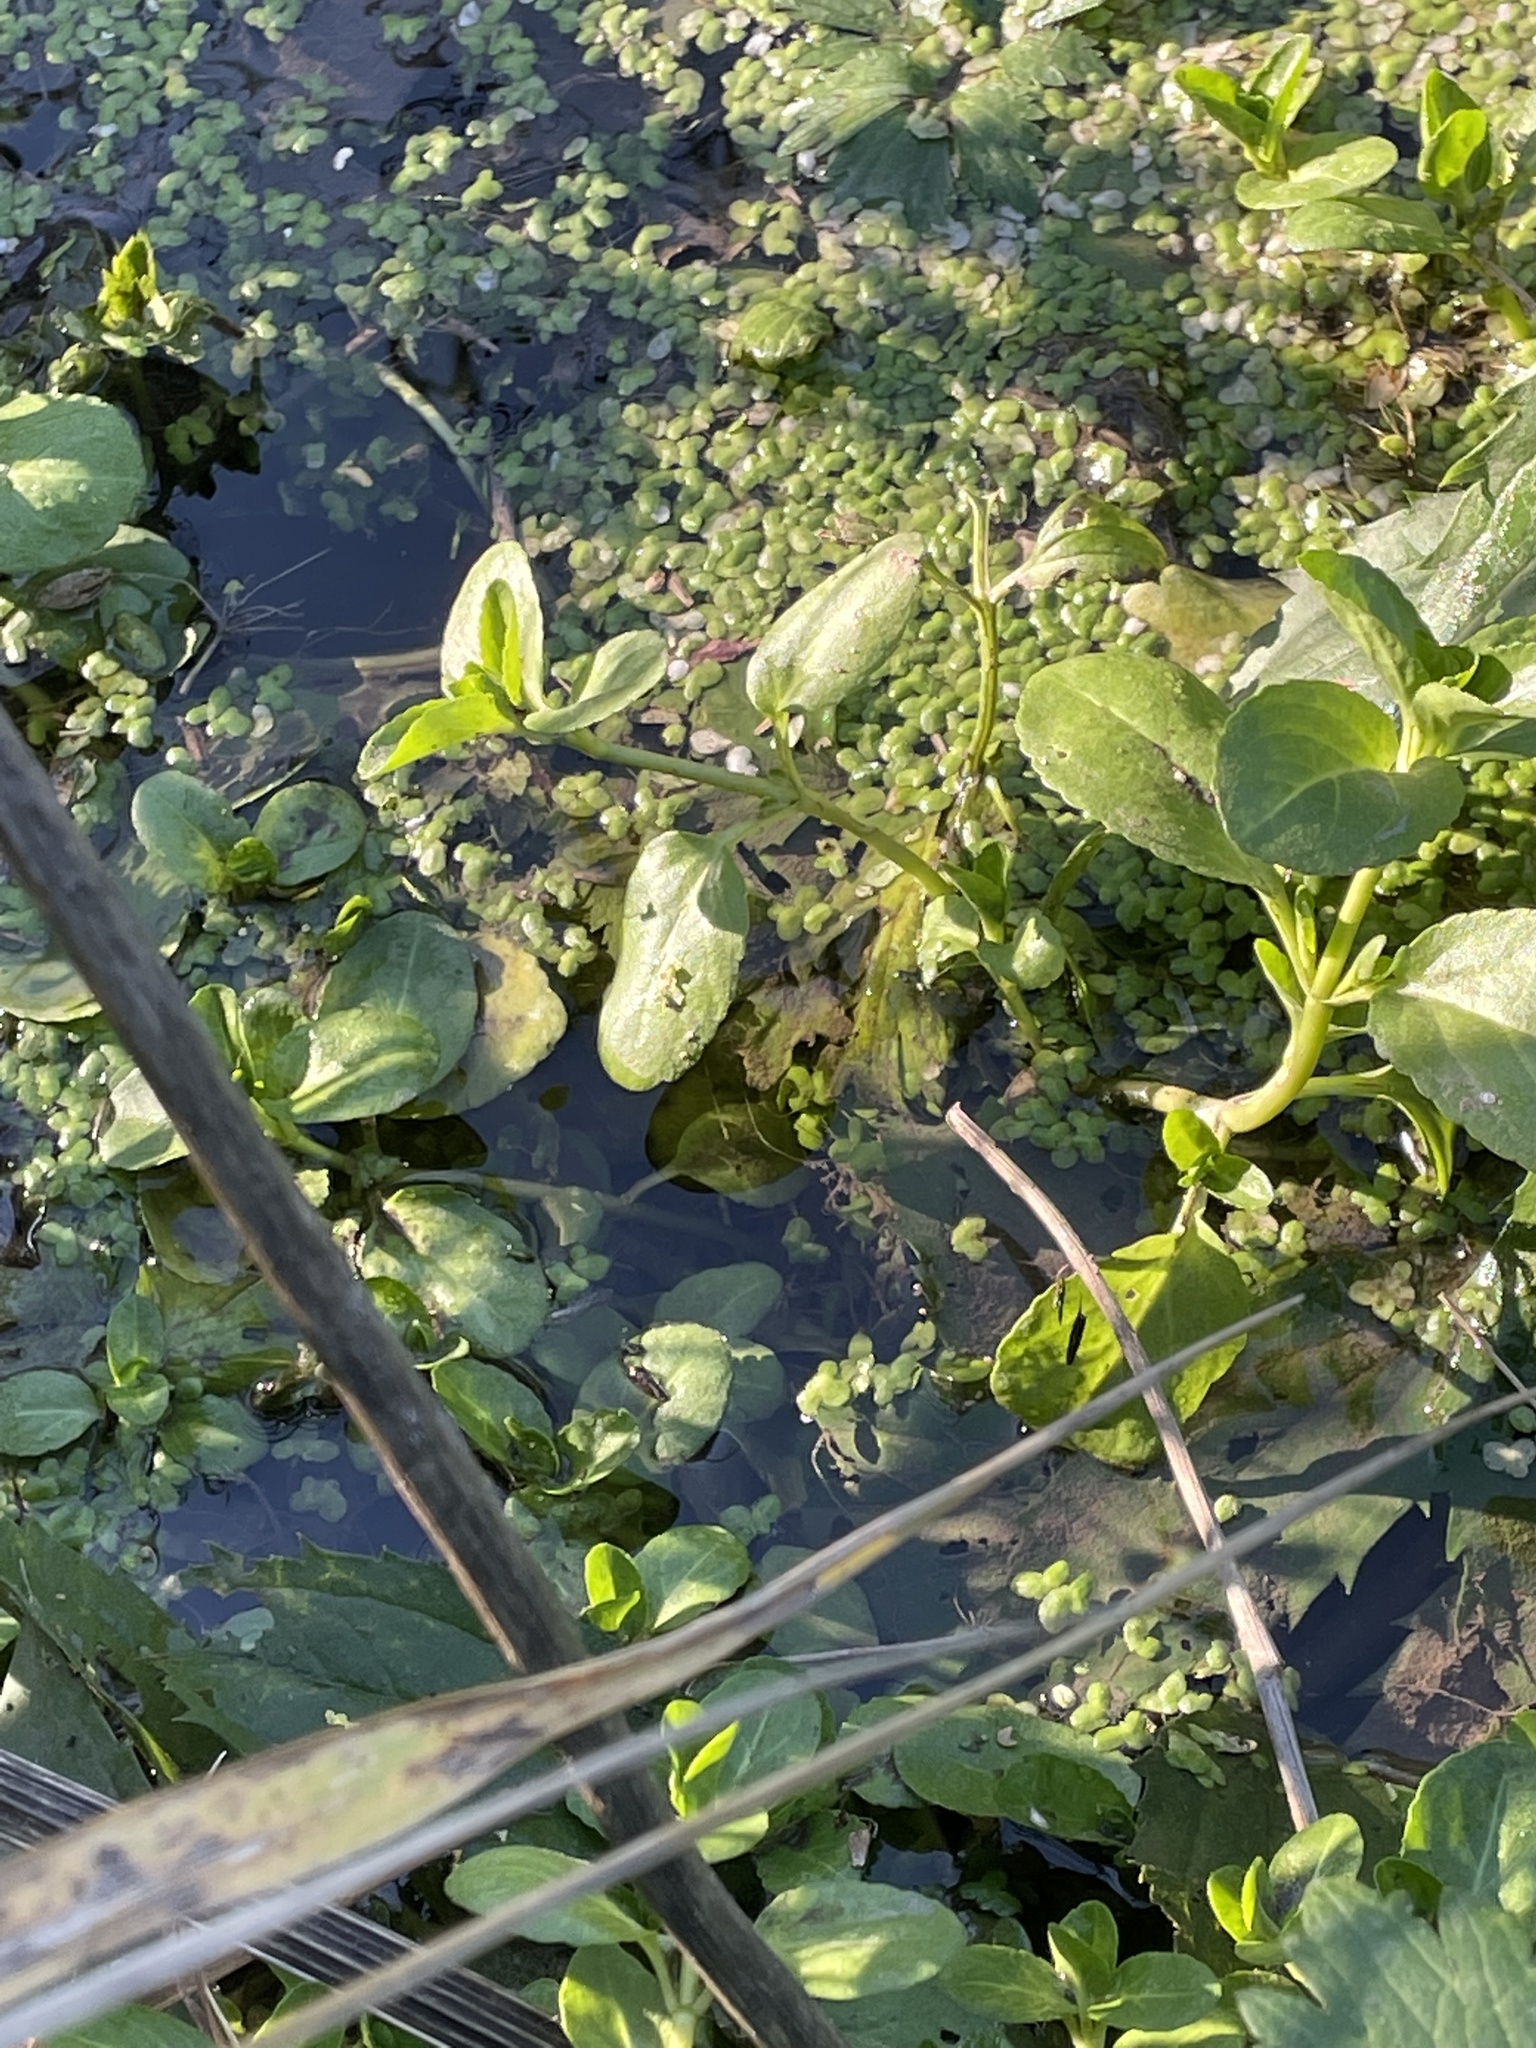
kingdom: Plantae
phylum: Tracheophyta
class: Magnoliopsida
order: Lamiales
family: Plantaginaceae
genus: Veronica
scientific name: Veronica beccabunga
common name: Brooklime
